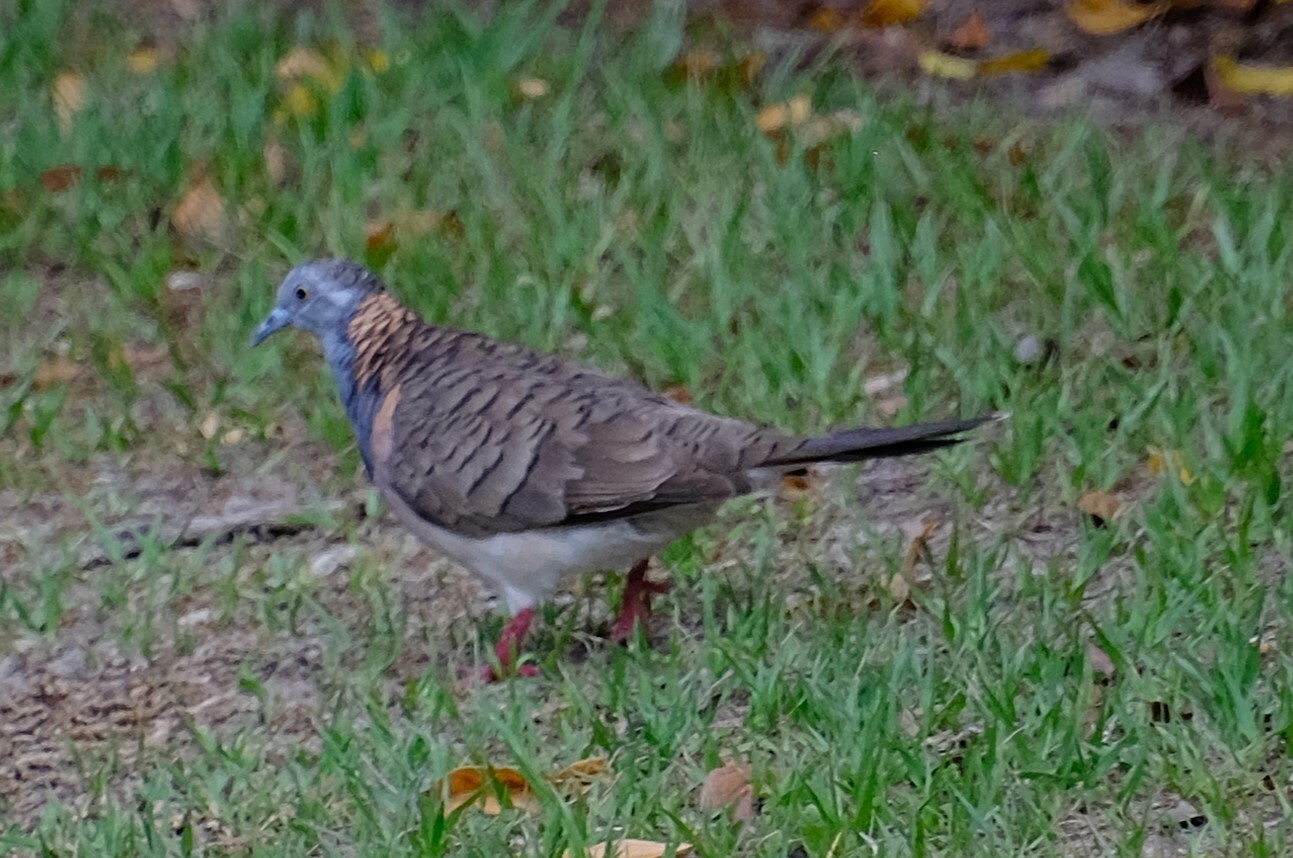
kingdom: Animalia
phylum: Chordata
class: Aves
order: Columbiformes
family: Columbidae
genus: Geopelia
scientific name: Geopelia humeralis
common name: Bar-shouldered dove
